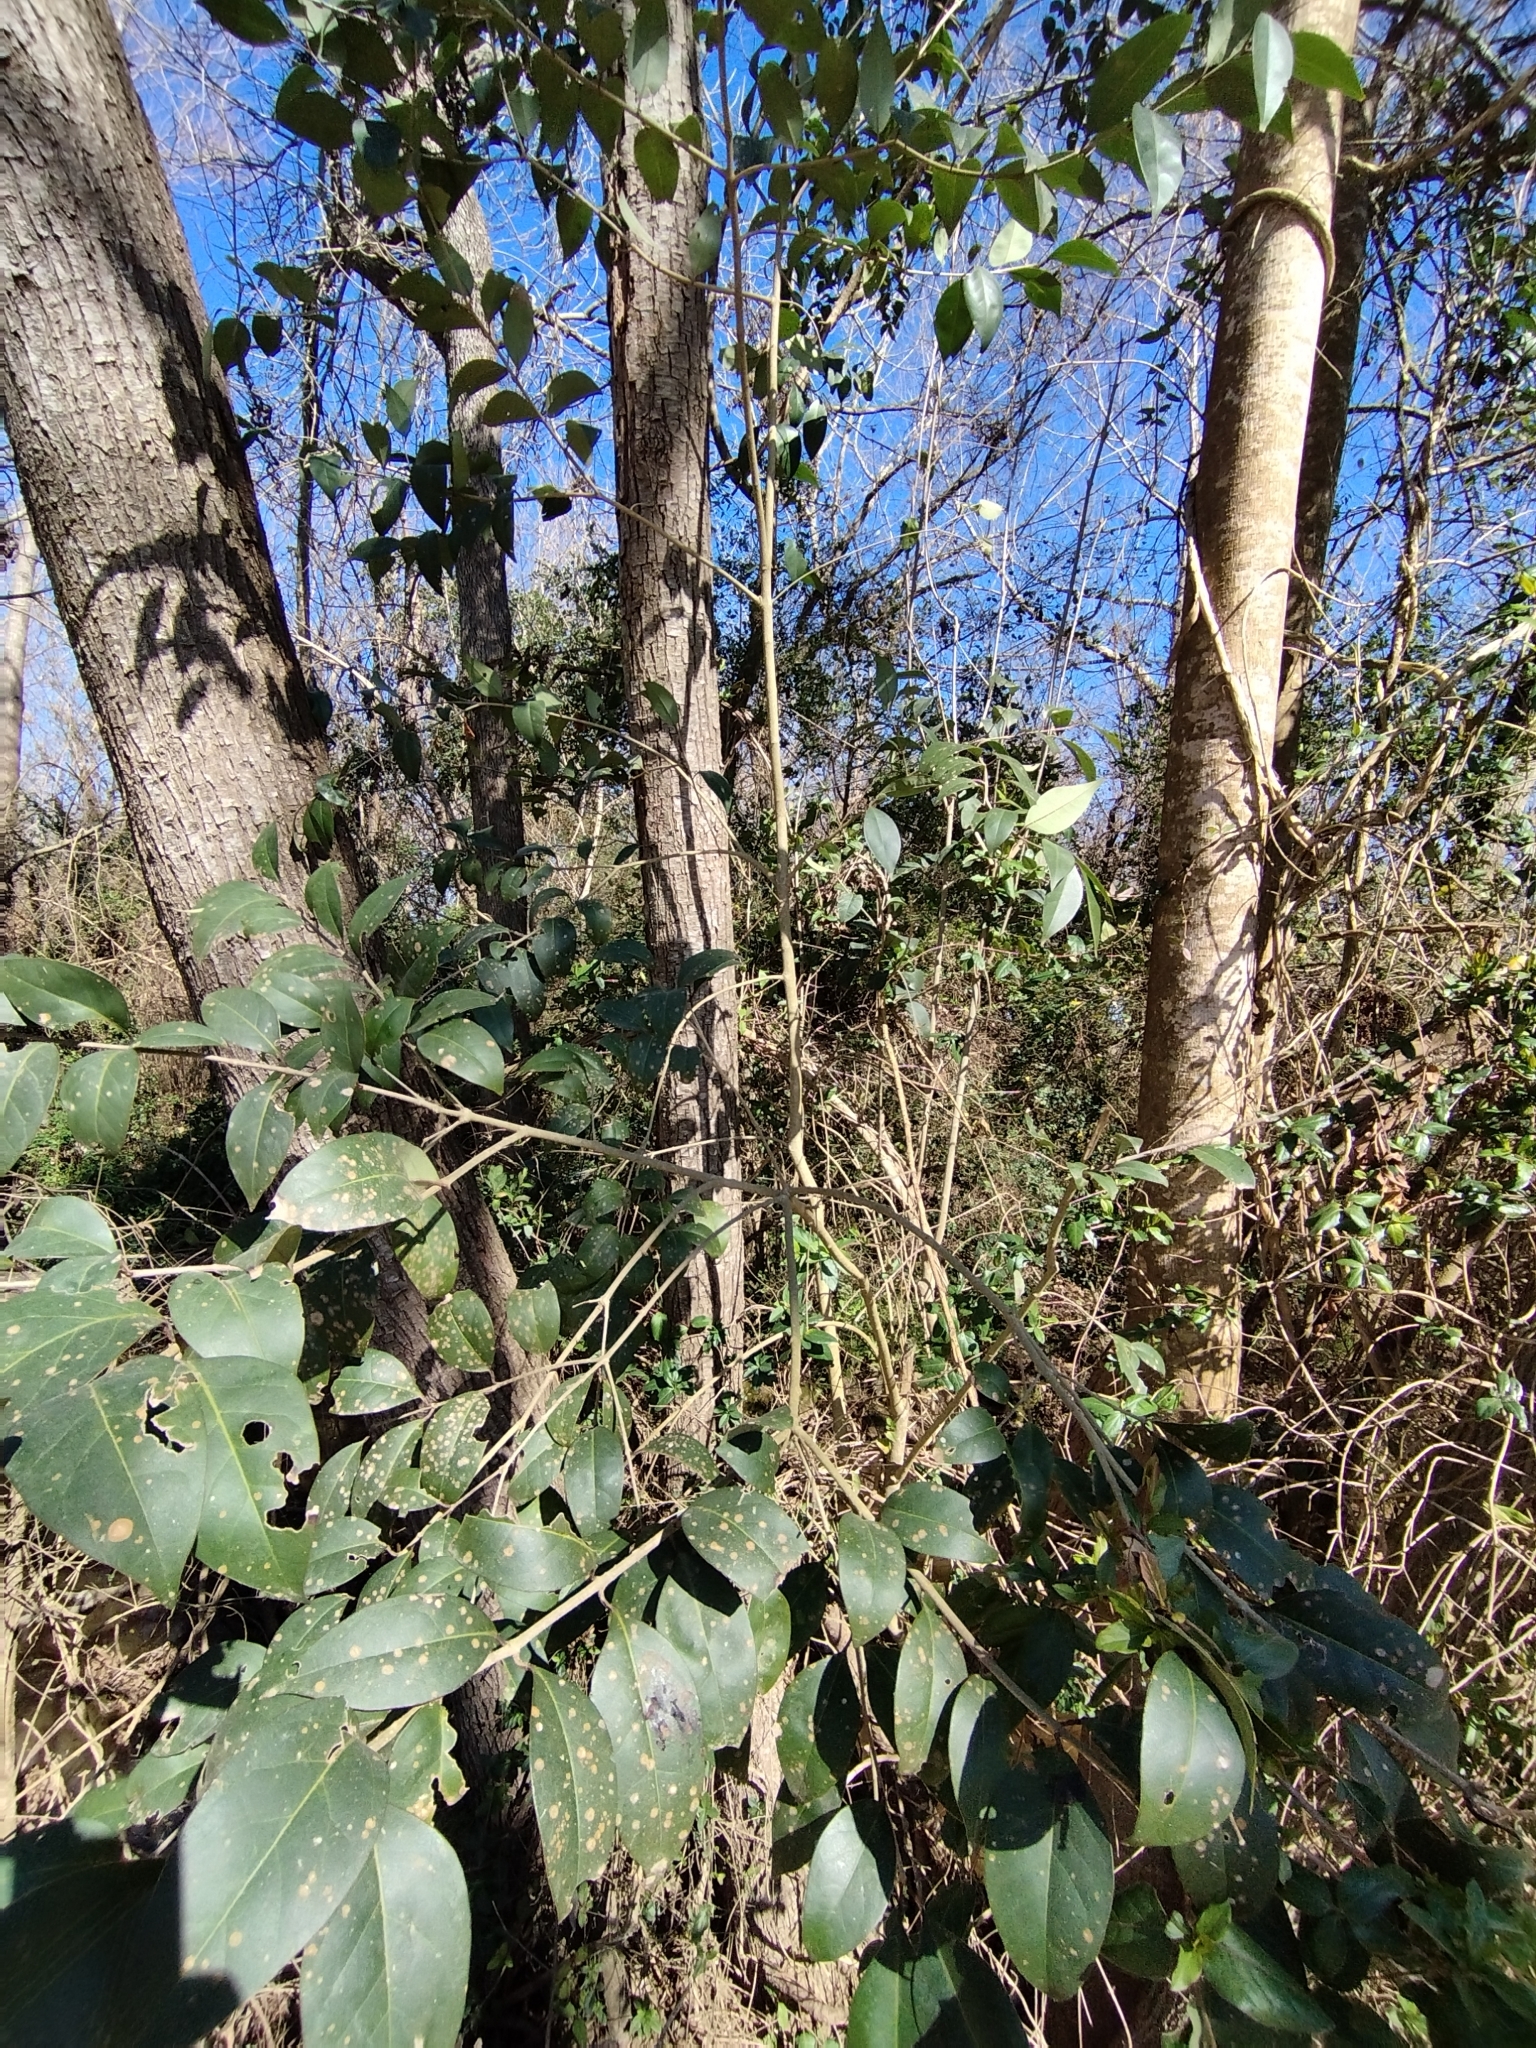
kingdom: Plantae
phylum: Tracheophyta
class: Magnoliopsida
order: Lamiales
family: Oleaceae
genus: Ligustrum
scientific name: Ligustrum lucidum
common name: Glossy privet
